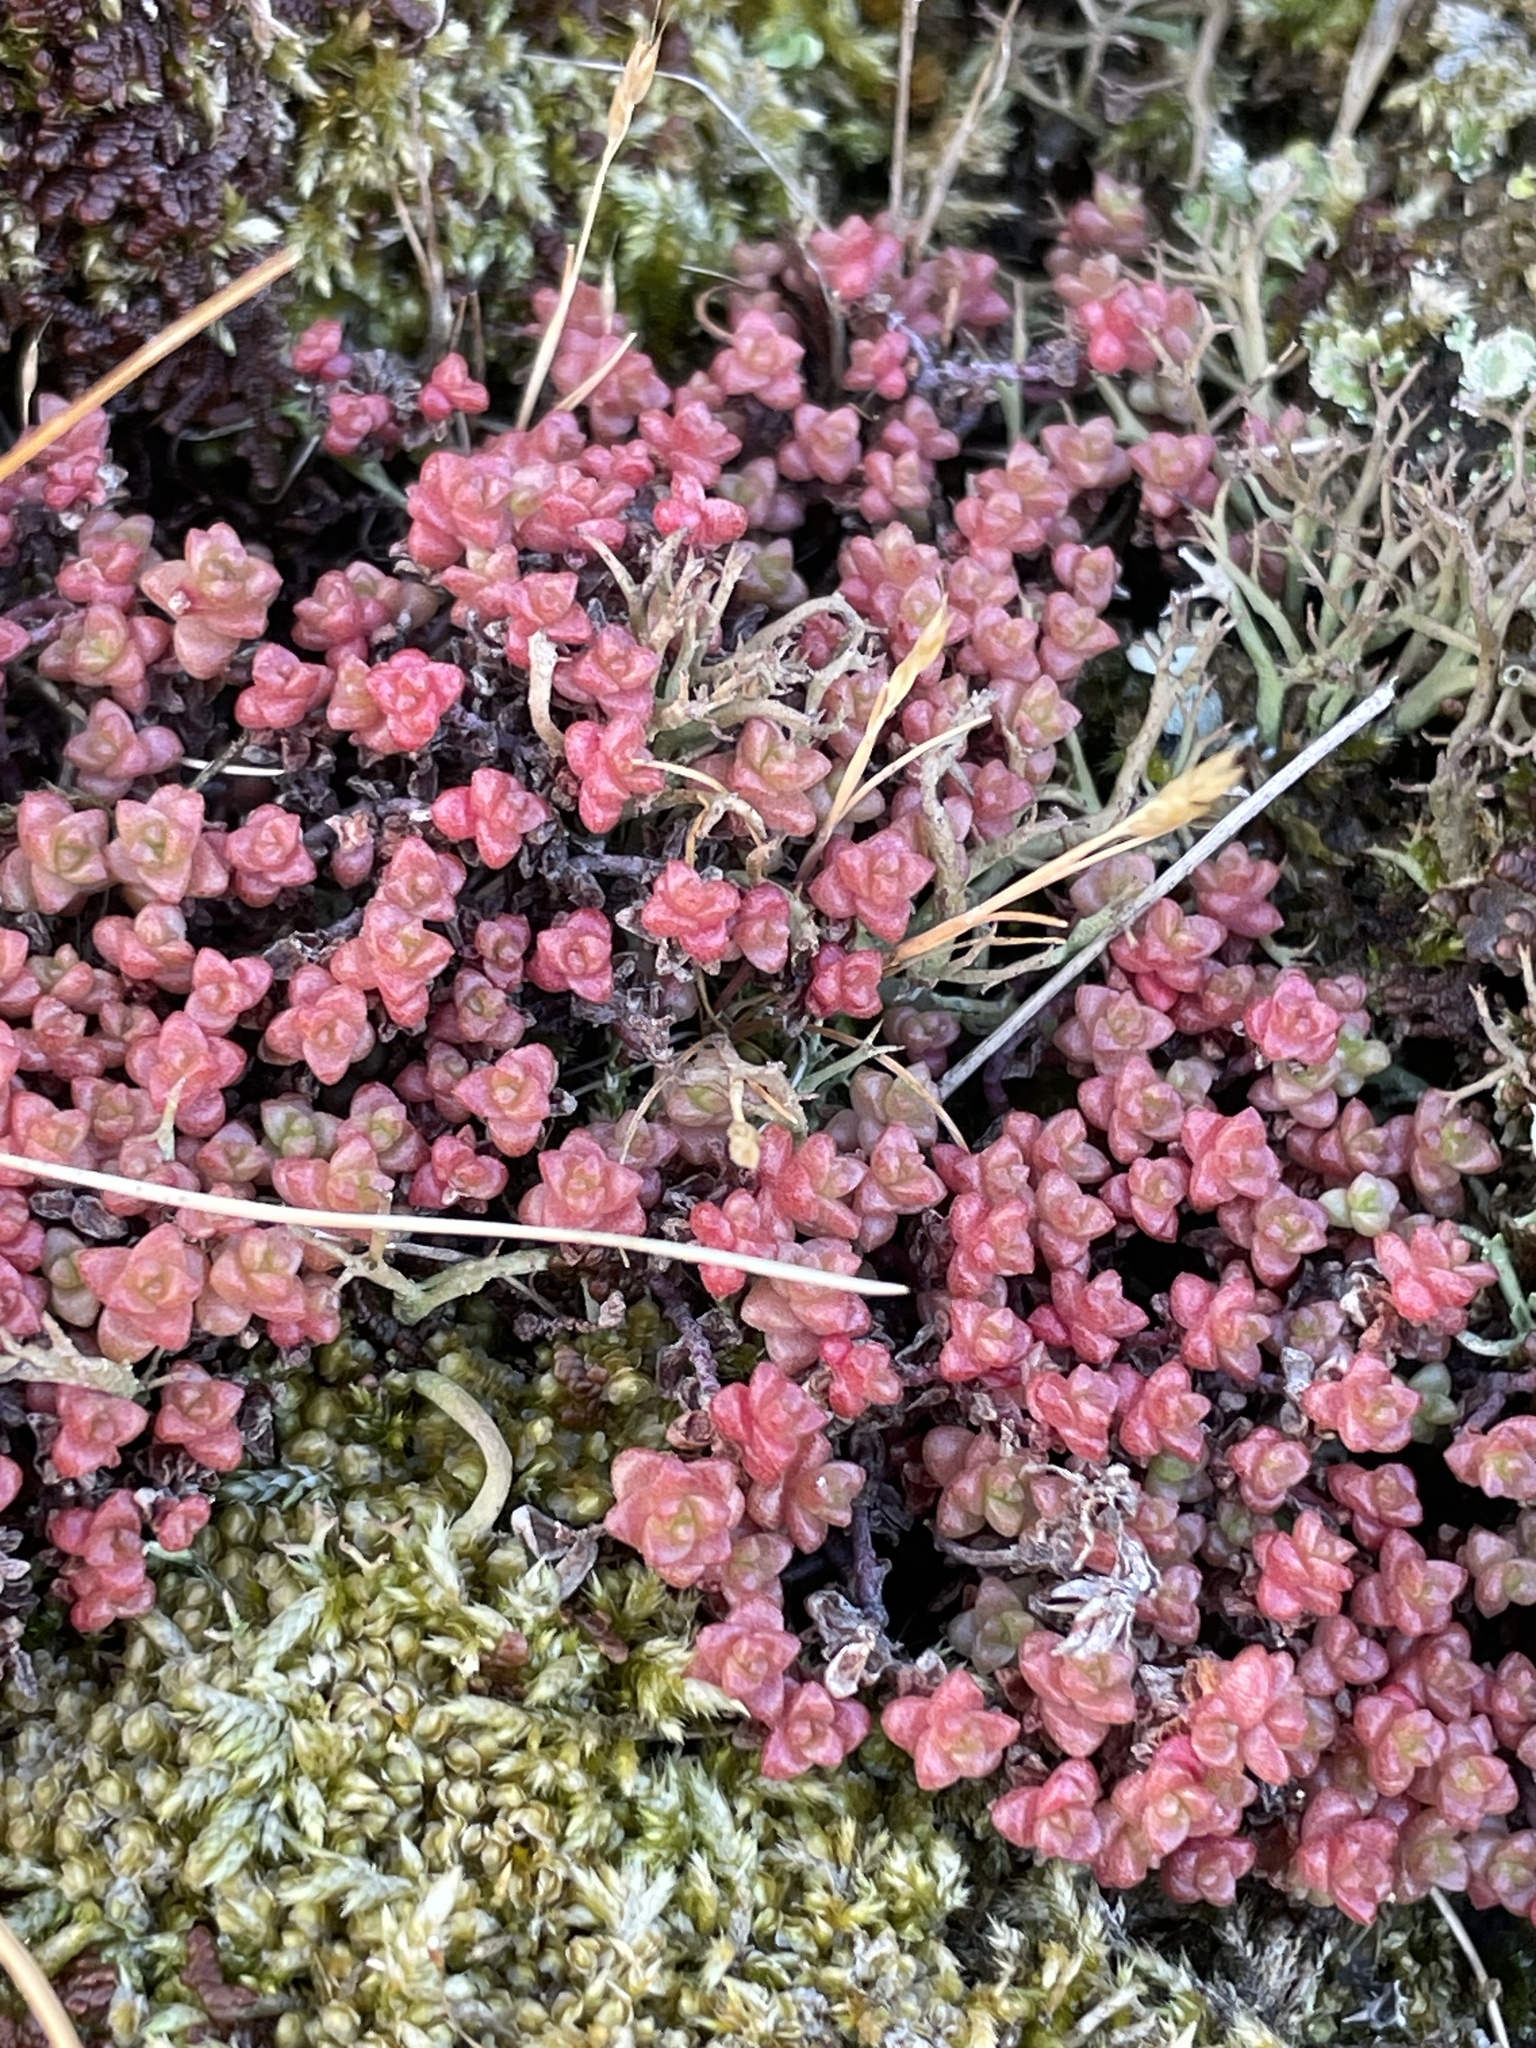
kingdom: Plantae
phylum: Tracheophyta
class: Magnoliopsida
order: Saxifragales
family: Crassulaceae
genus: Sedum
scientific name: Sedum anglicum
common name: English stonecrop
